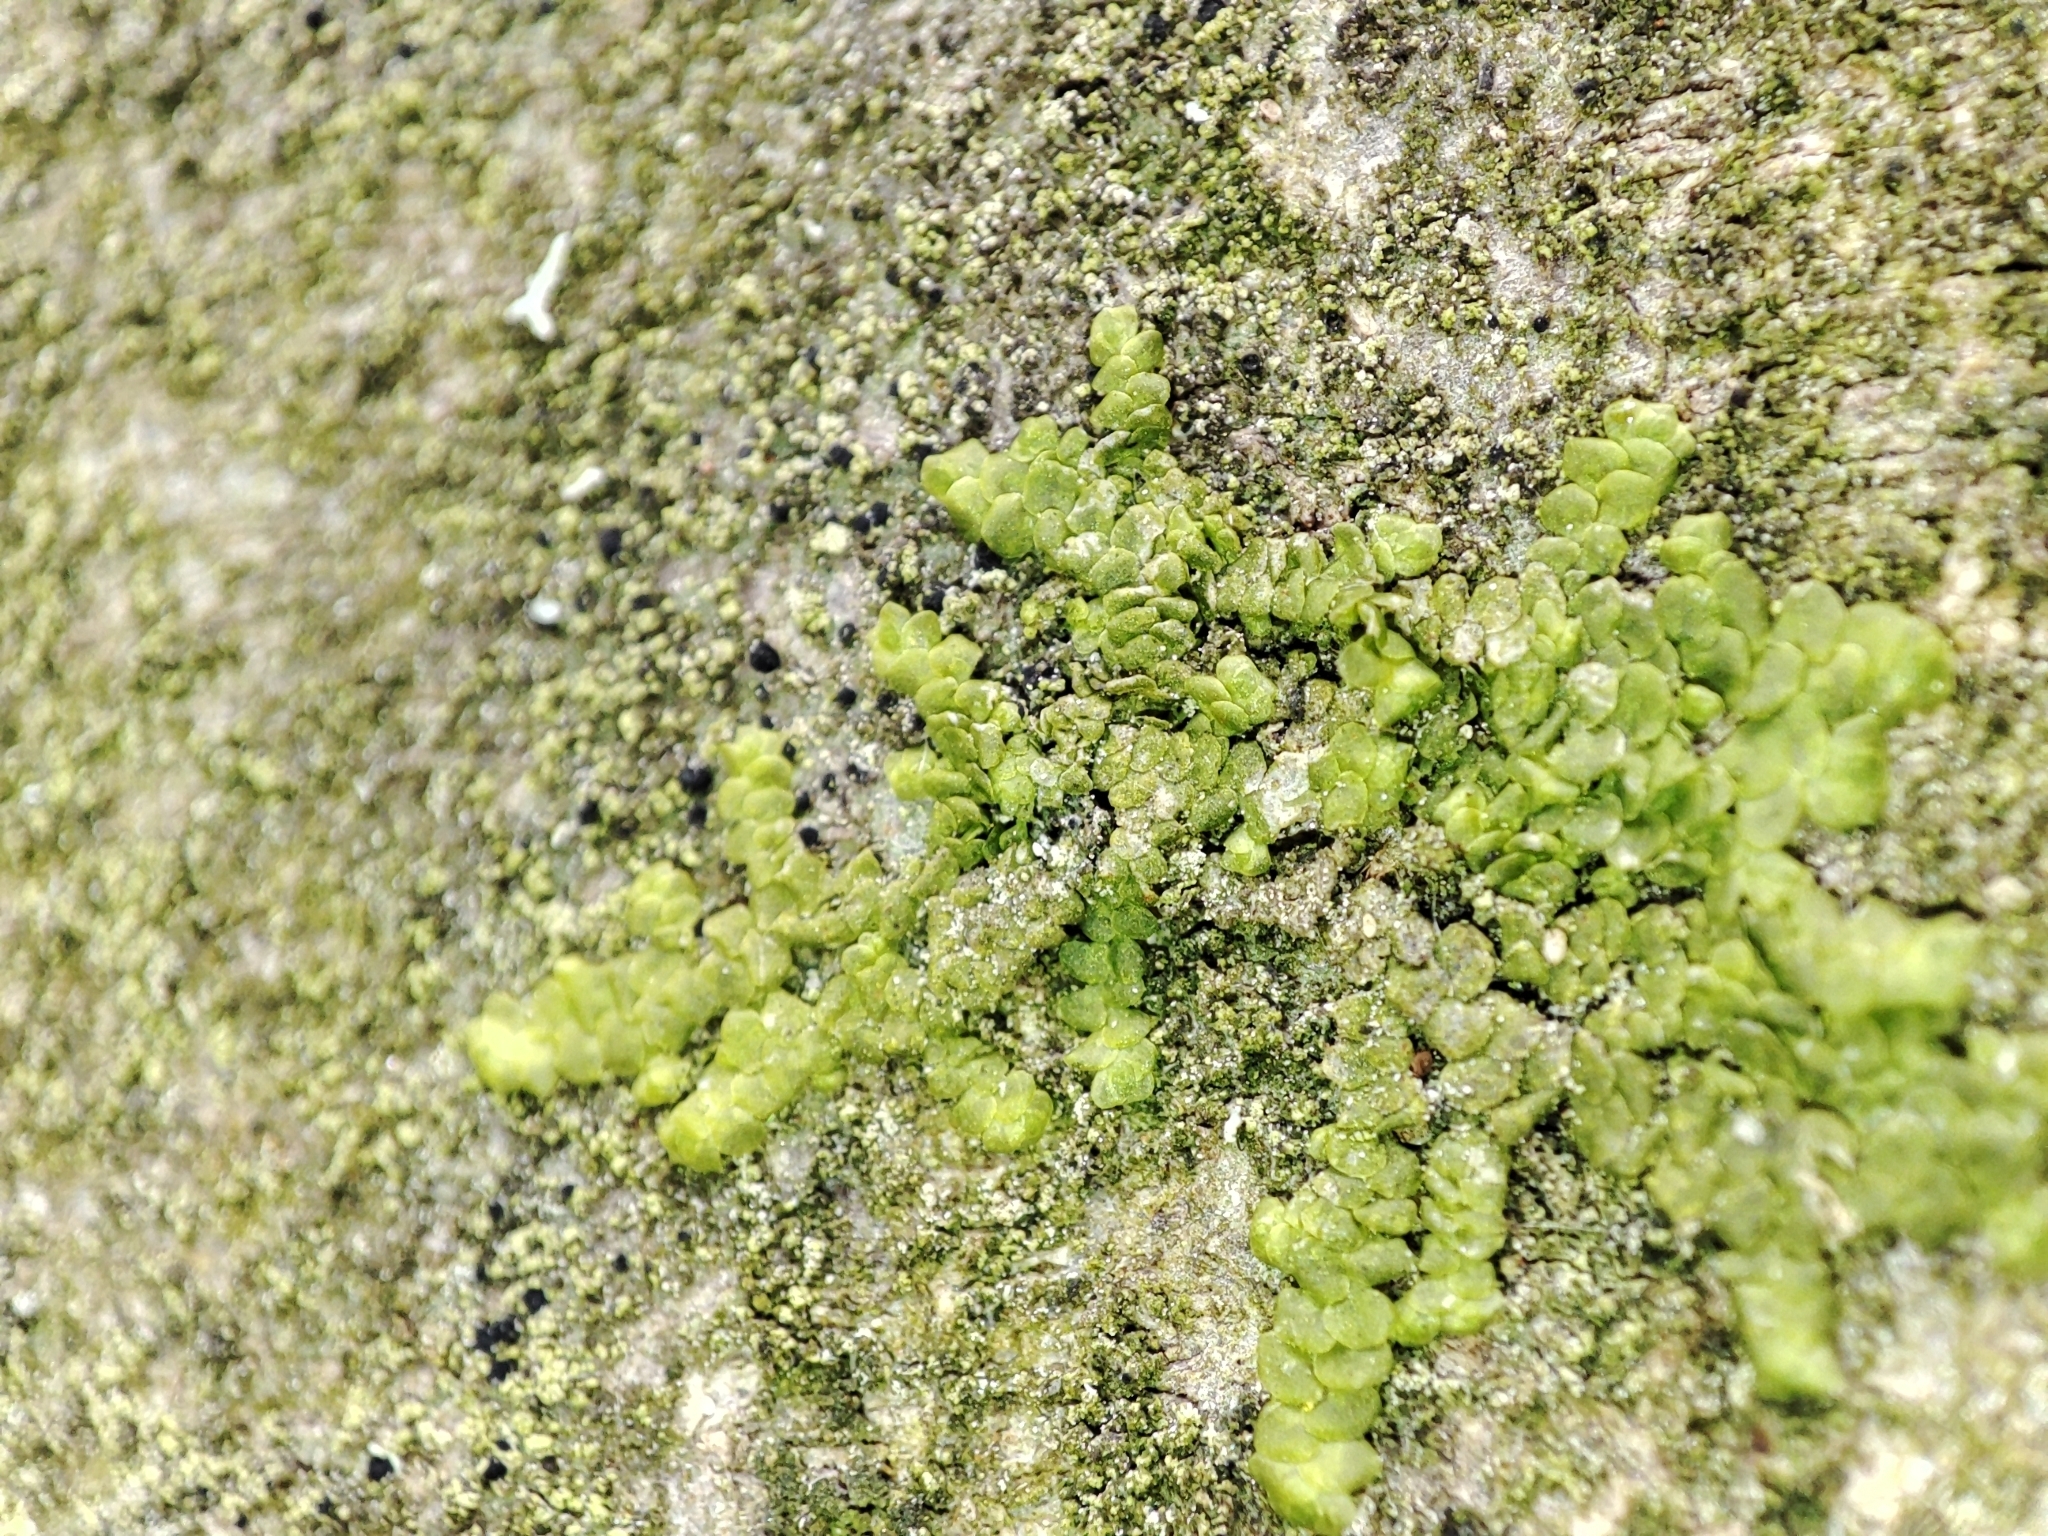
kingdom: Plantae
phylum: Marchantiophyta
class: Jungermanniopsida
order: Porellales
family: Radulaceae
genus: Radula
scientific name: Radula complanata
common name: Flat-leaved scalewort
